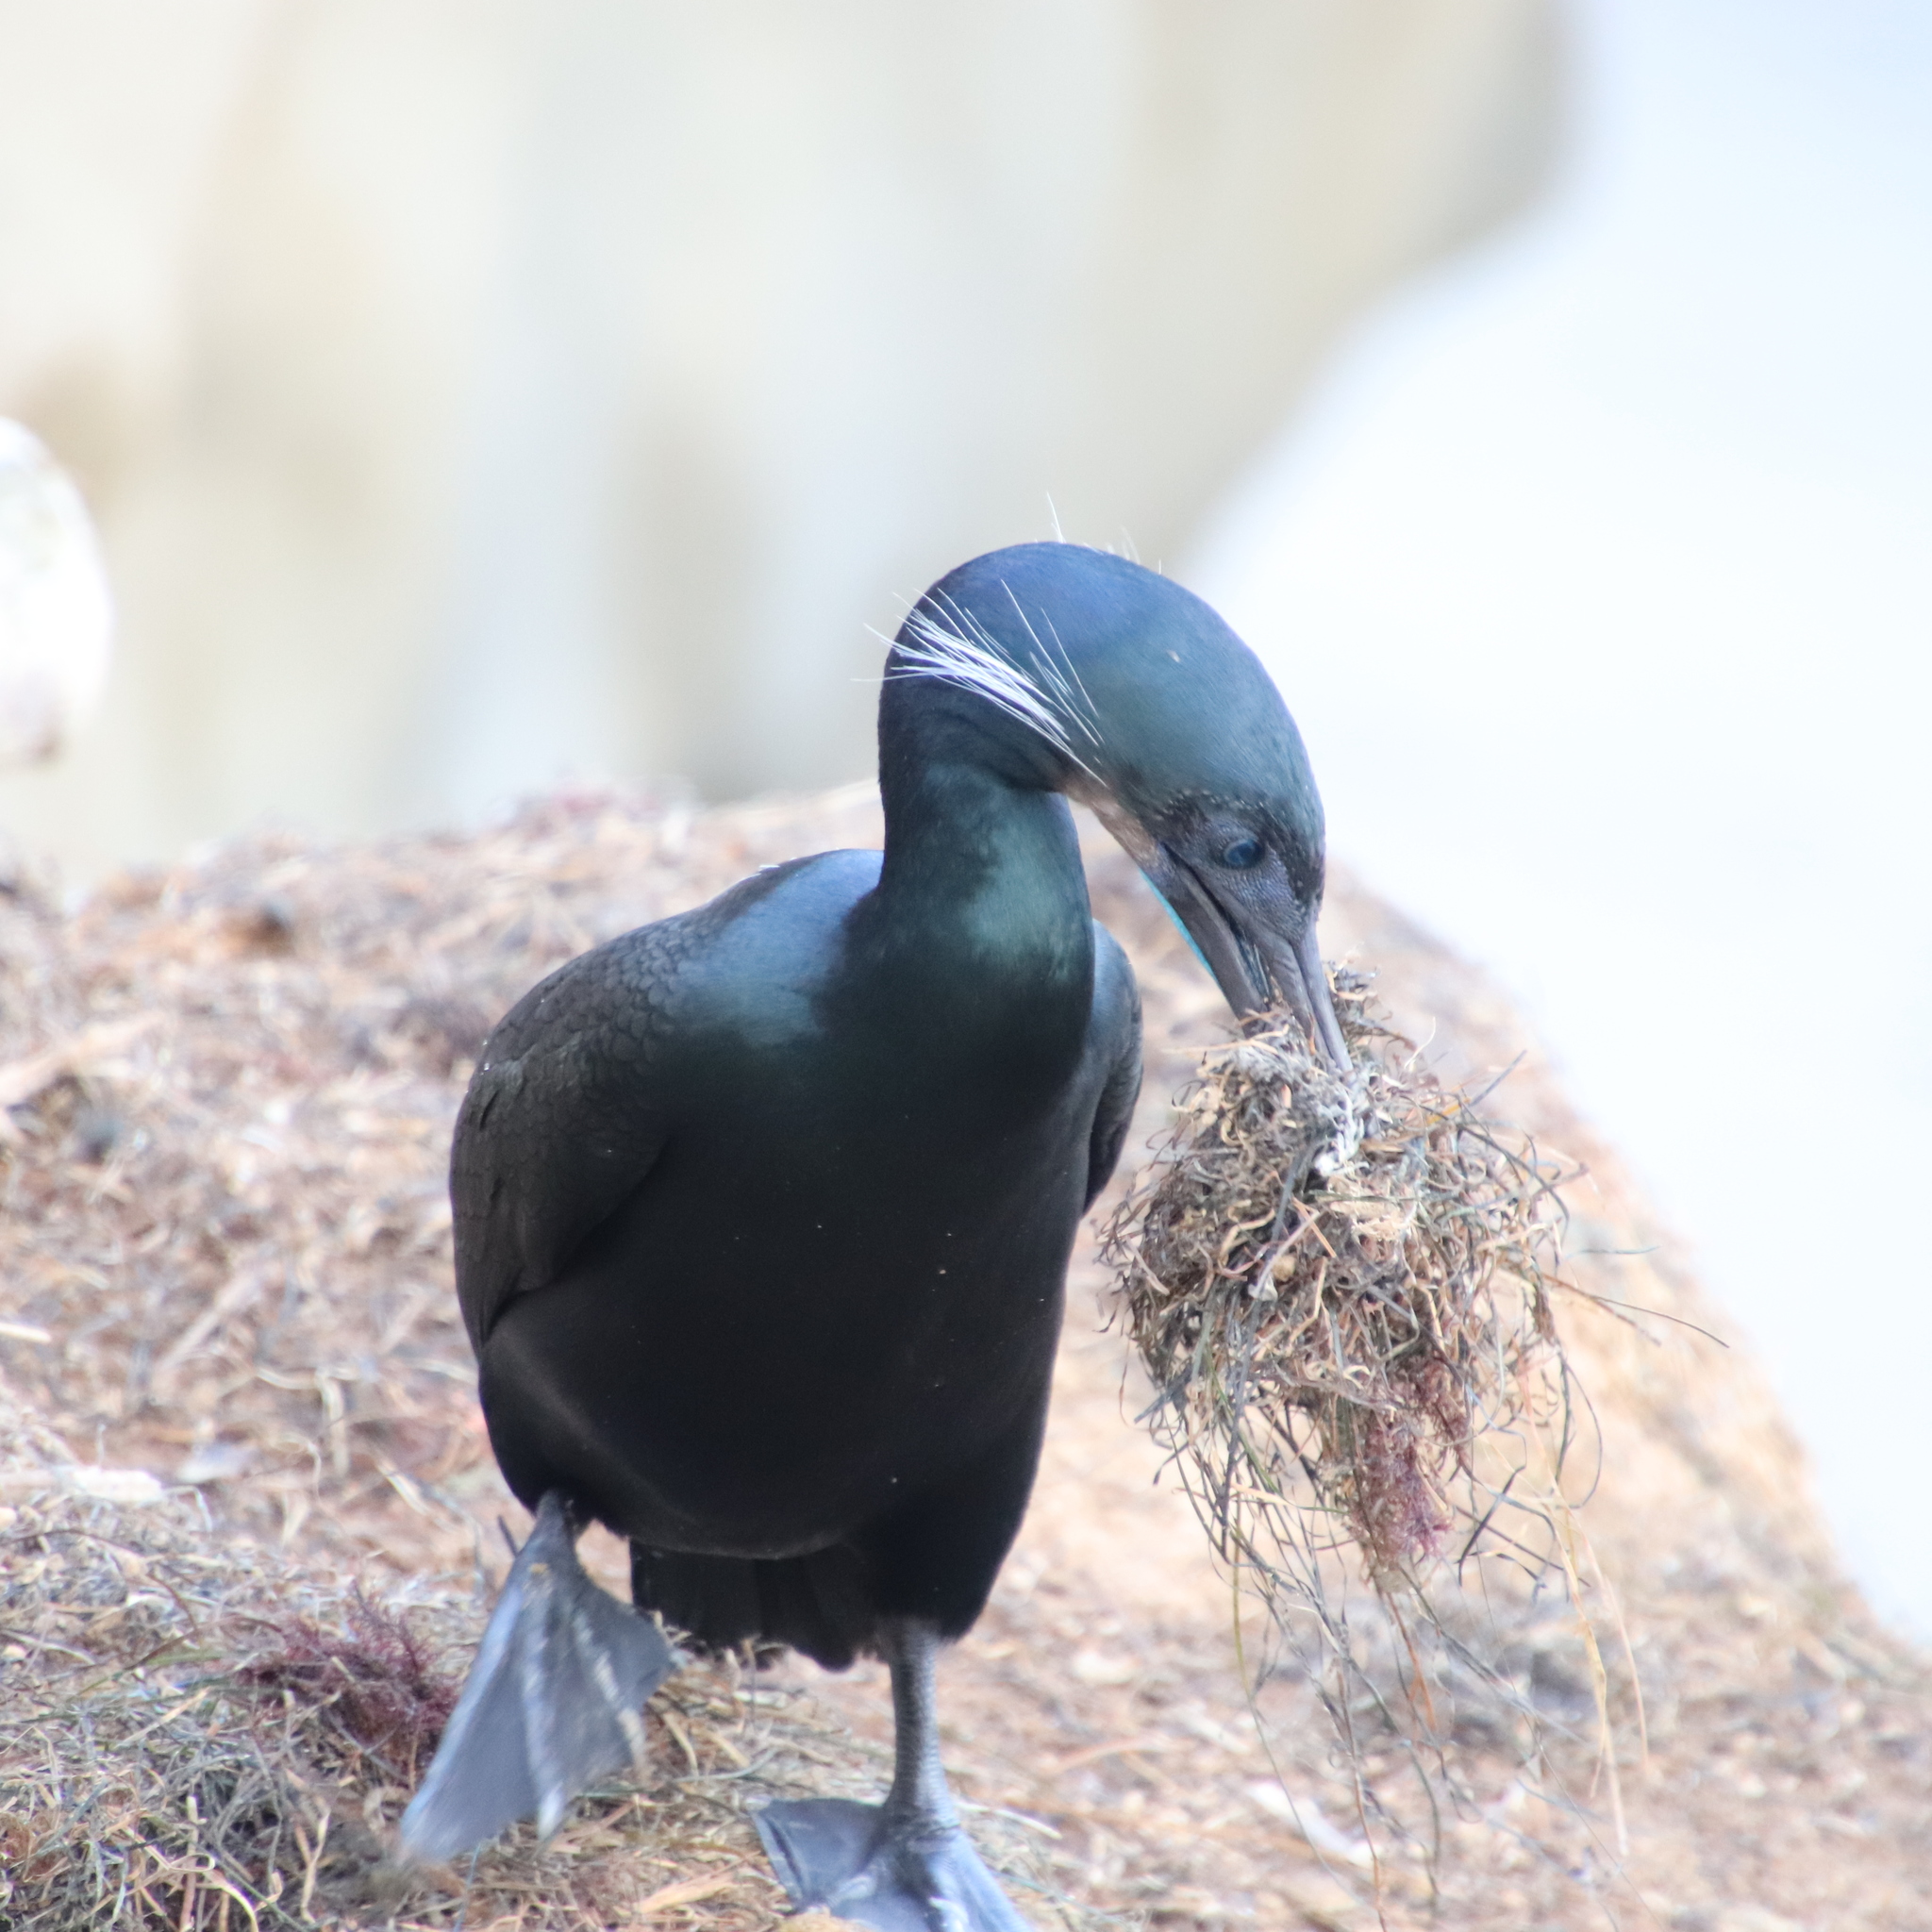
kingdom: Animalia
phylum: Chordata
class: Aves
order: Suliformes
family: Phalacrocoracidae
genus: Urile
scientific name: Urile penicillatus
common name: Brandt's cormorant
